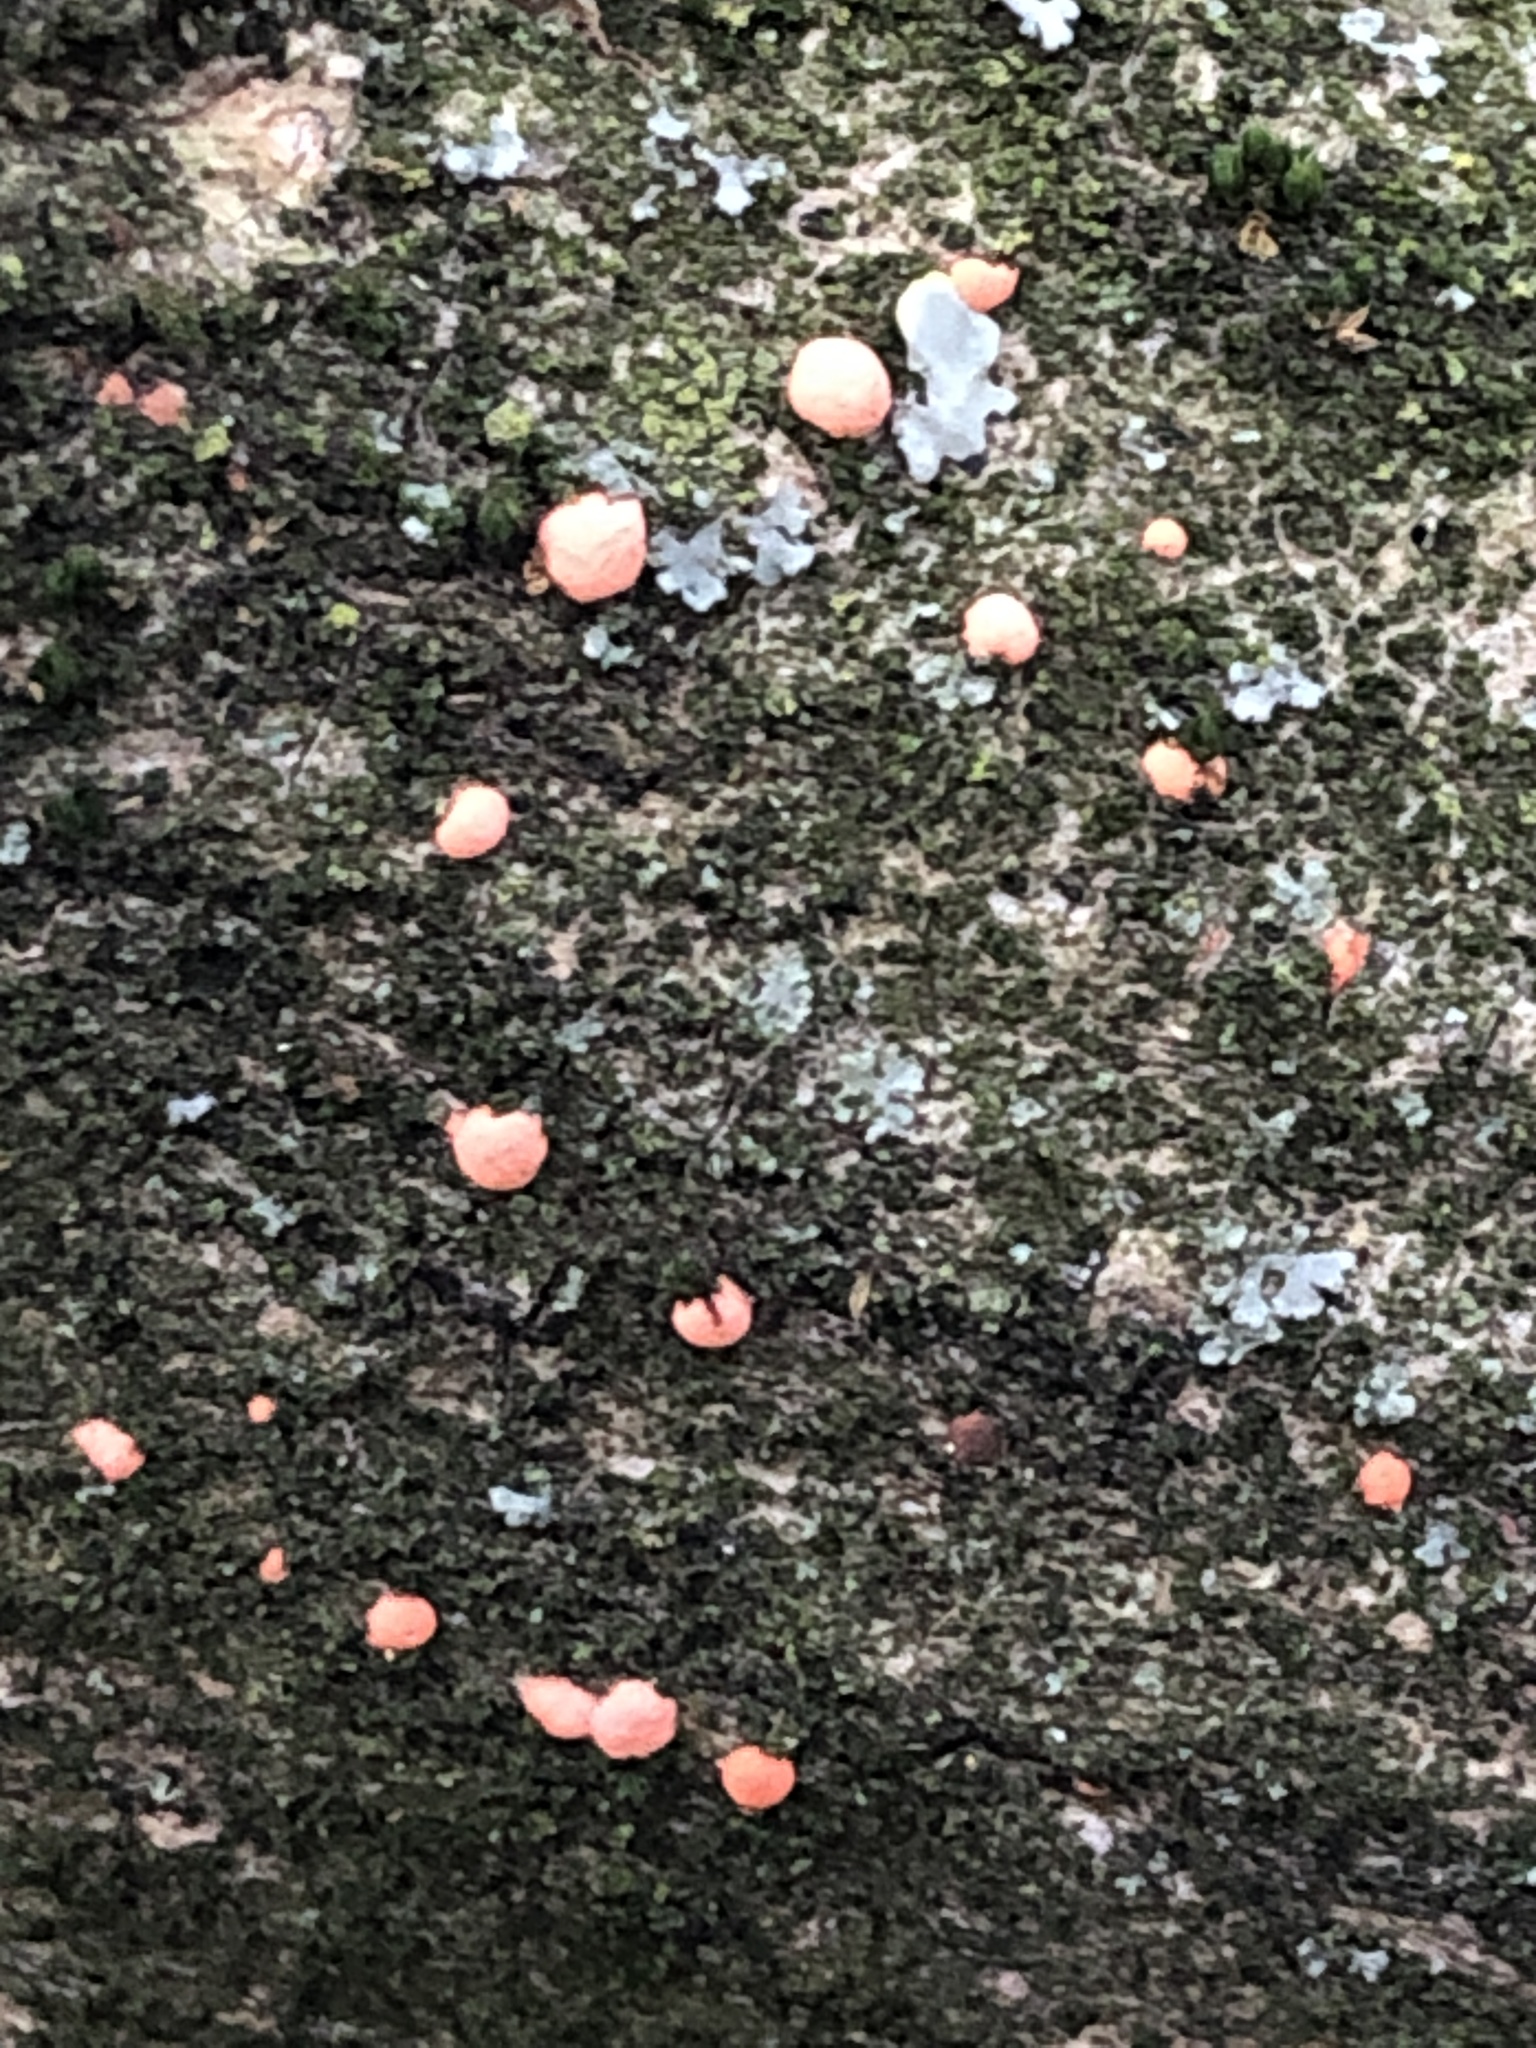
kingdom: Fungi
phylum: Ascomycota
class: Sordariomycetes
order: Hypocreales
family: Nectriaceae
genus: Nectria
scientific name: Nectria cinnabarina
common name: Coral spot
